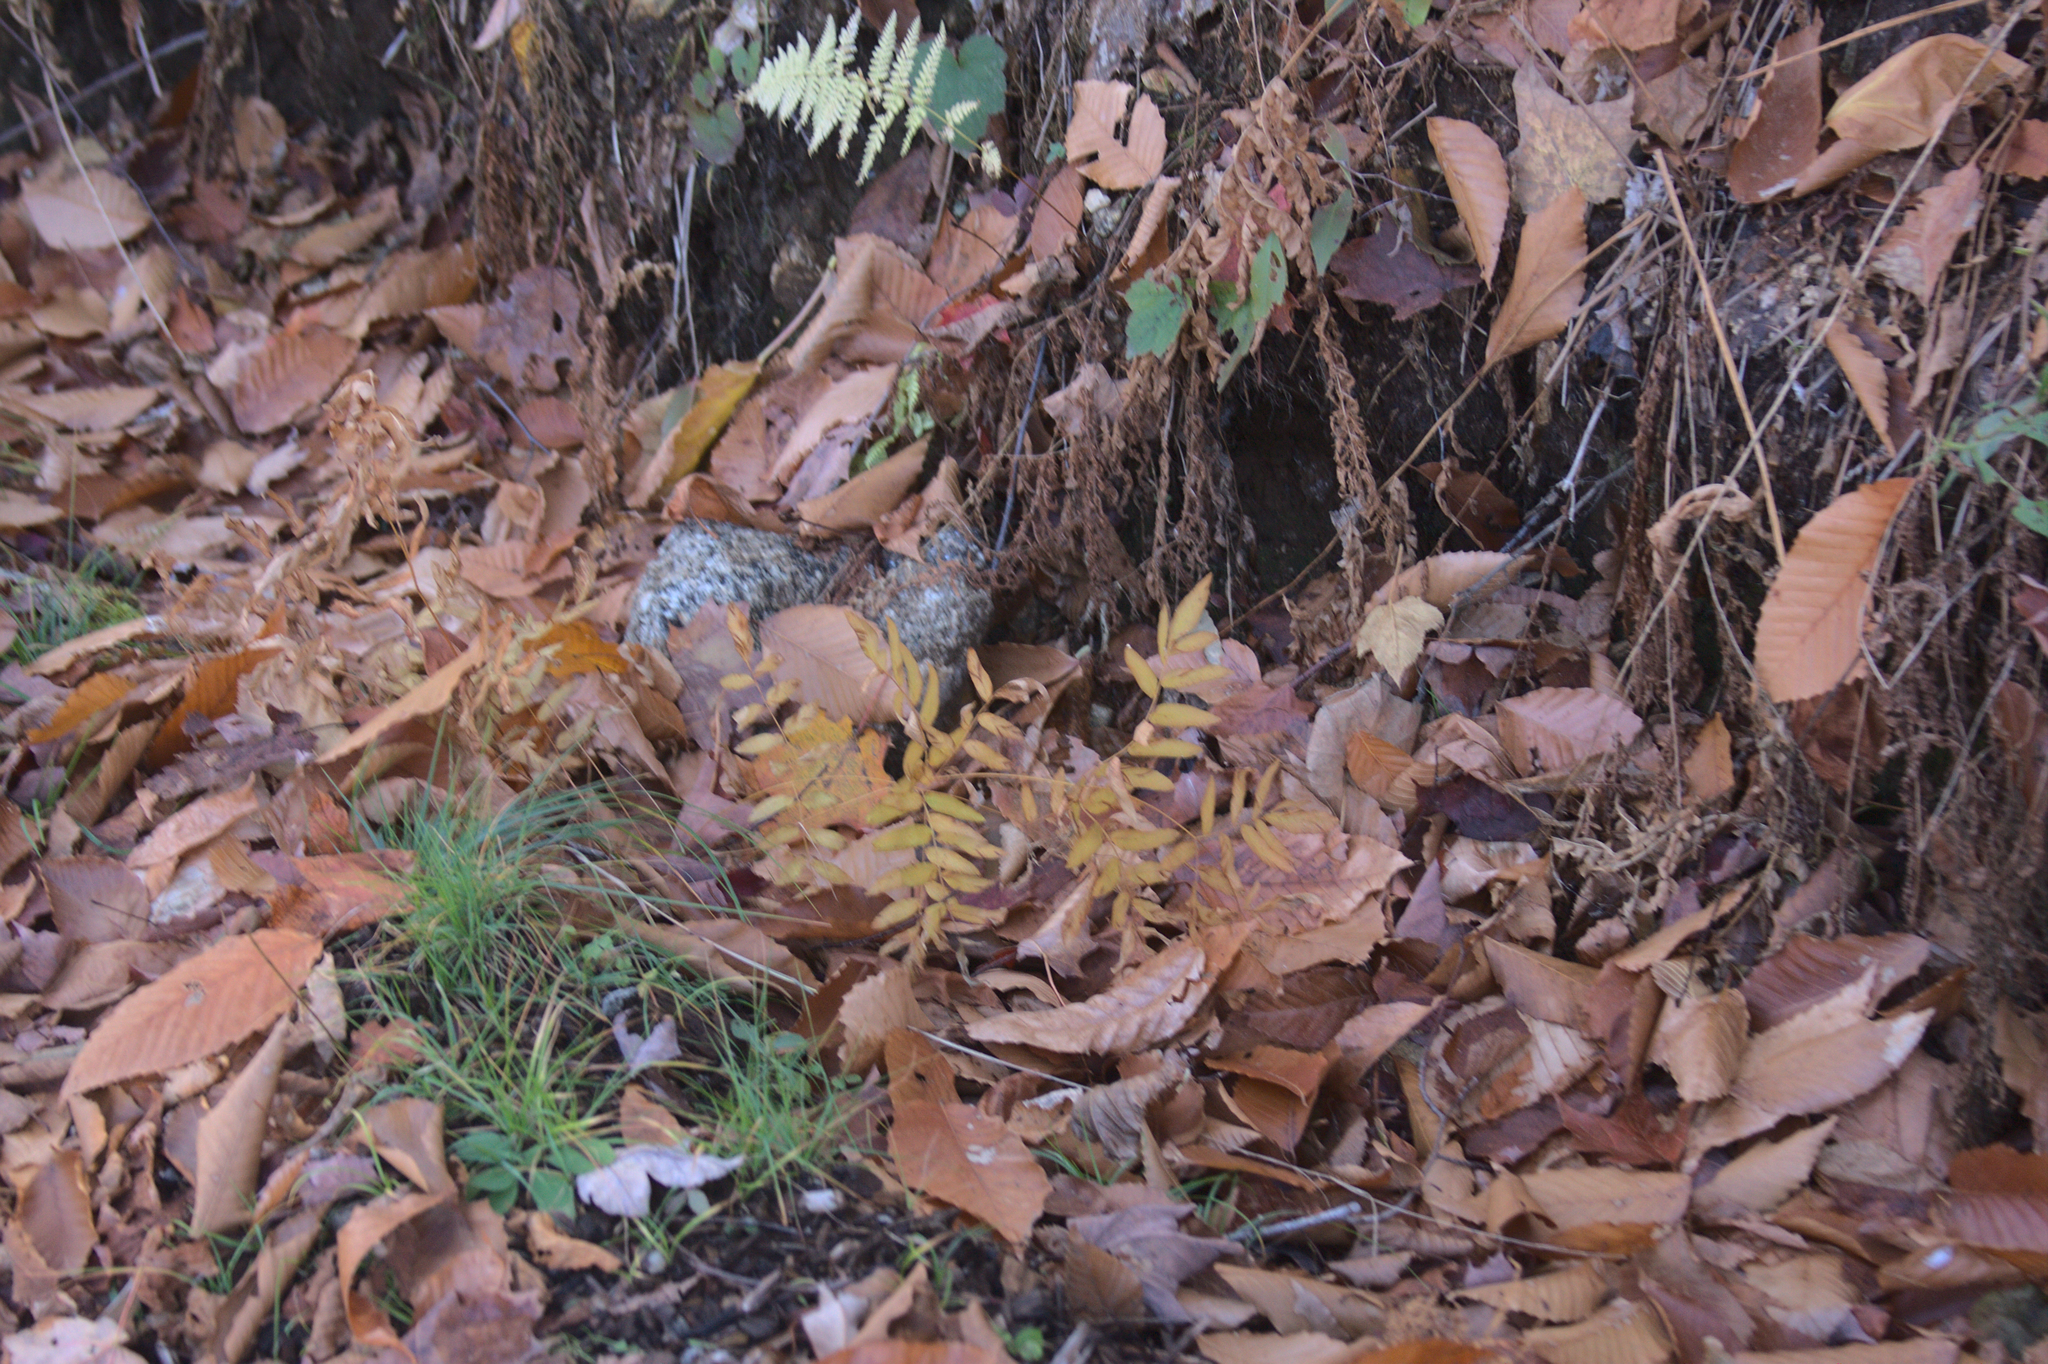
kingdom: Plantae
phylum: Tracheophyta
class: Polypodiopsida
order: Osmundales
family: Osmundaceae
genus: Osmunda
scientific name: Osmunda spectabilis
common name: American royal fern
